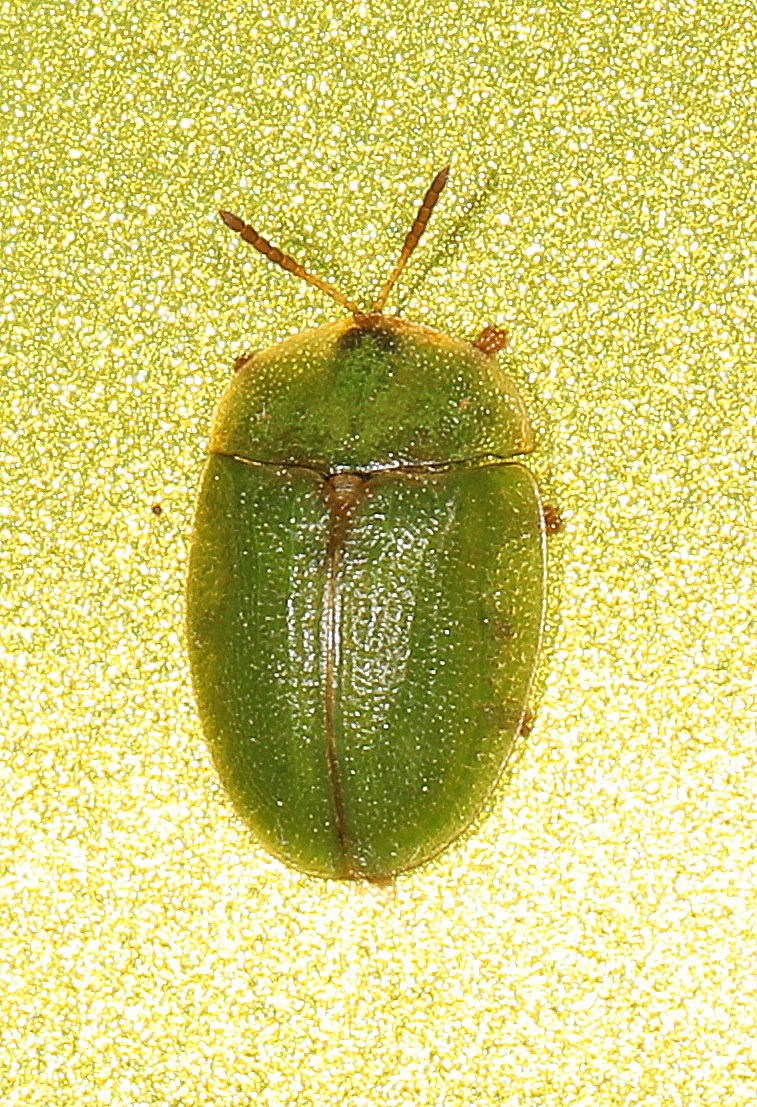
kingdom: Animalia
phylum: Arthropoda
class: Insecta
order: Coleoptera
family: Chrysomelidae
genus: Cassida
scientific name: Cassida rubiginosa
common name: Thistle tortoise beetle
